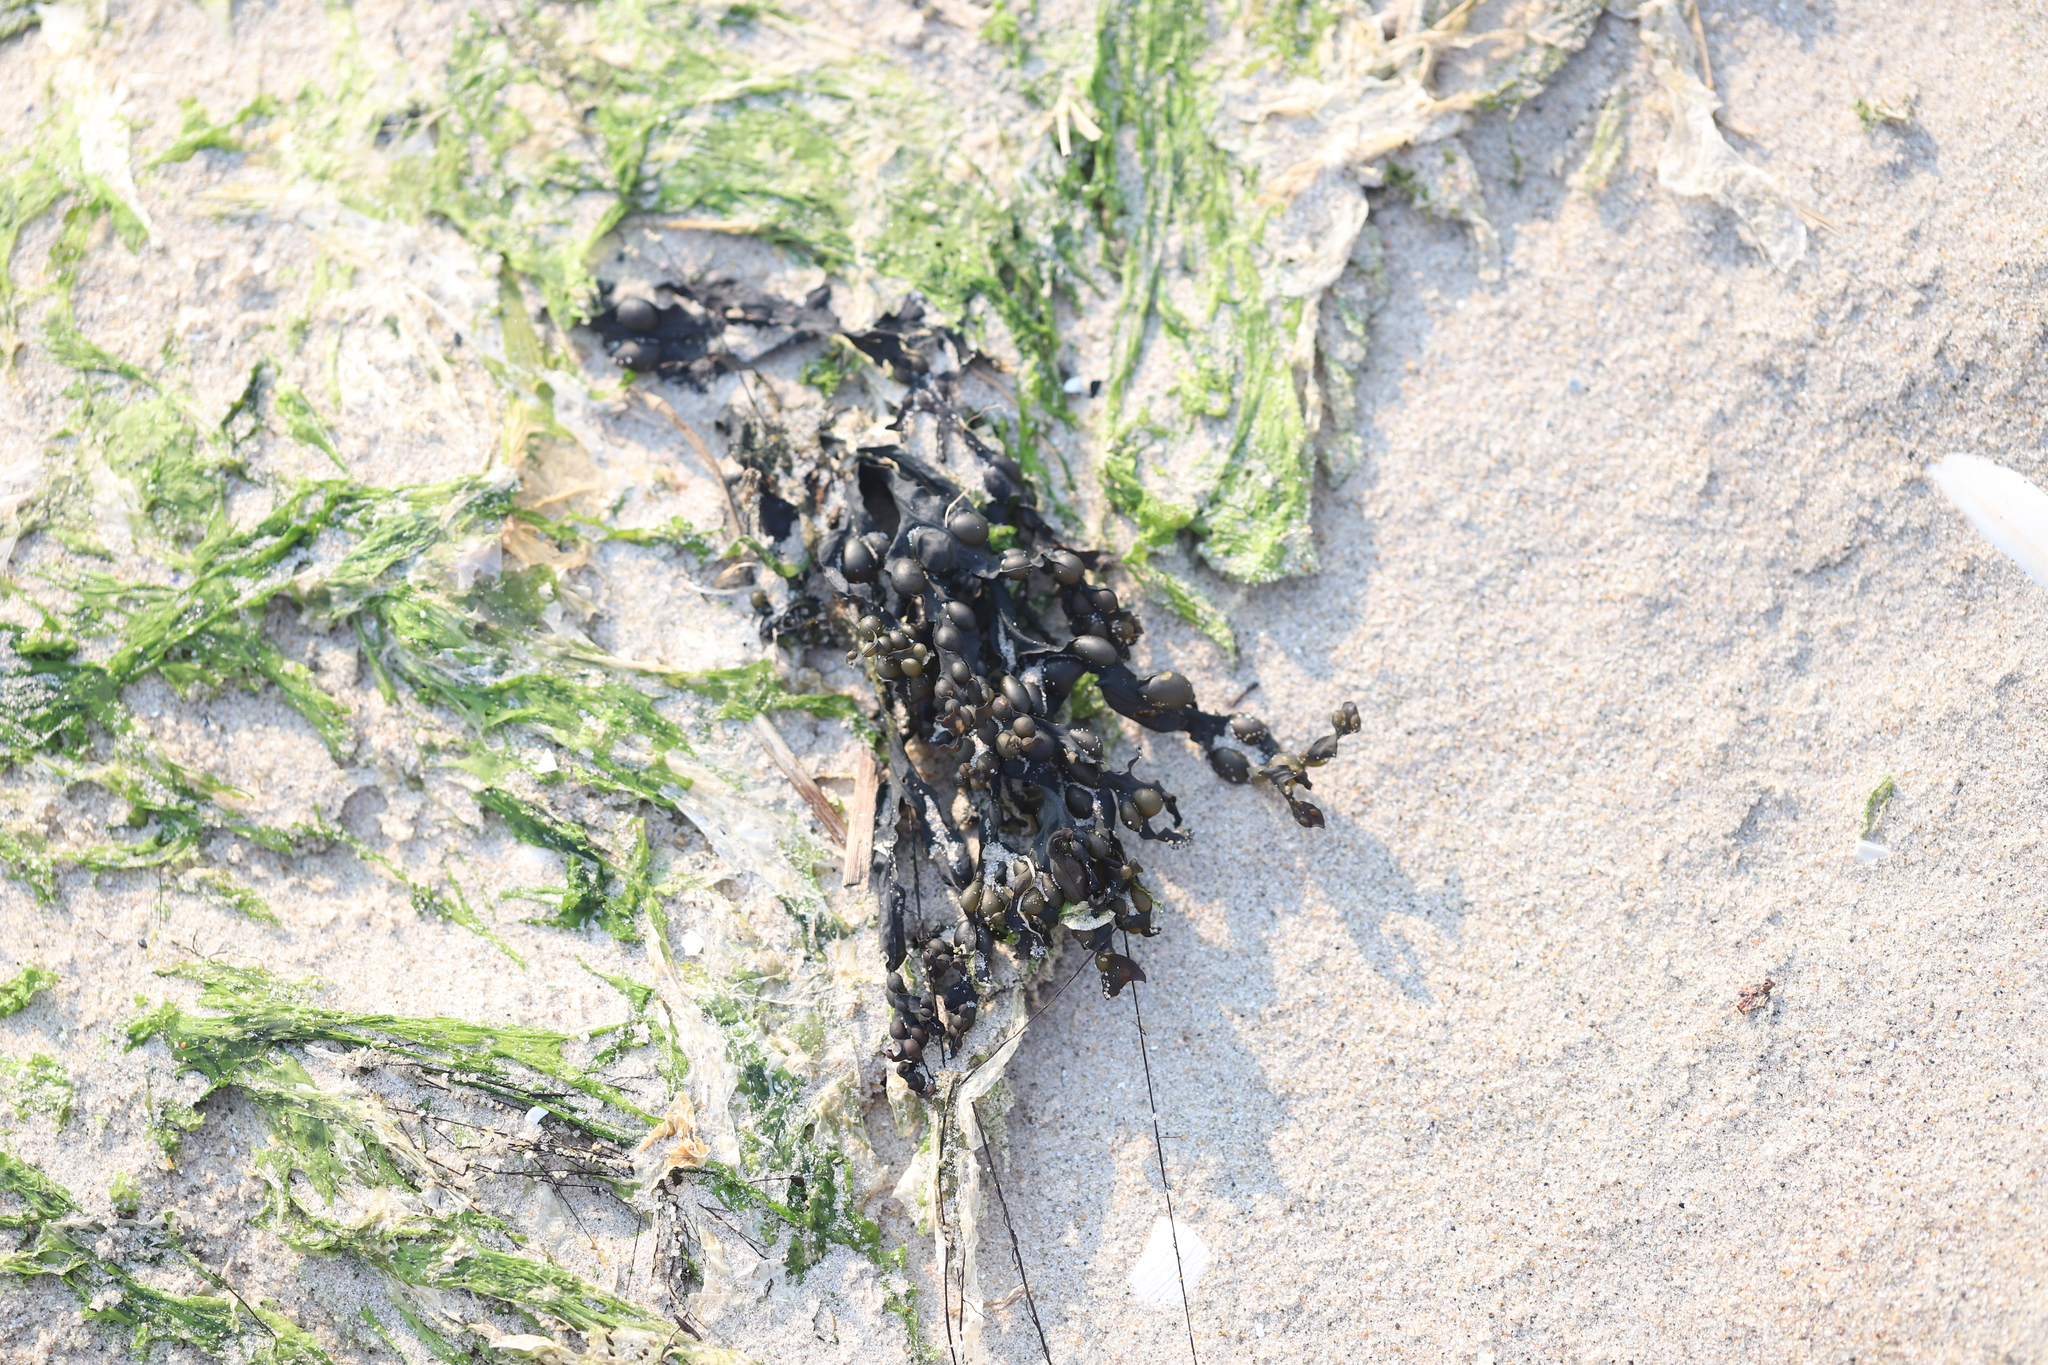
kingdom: Chromista
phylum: Ochrophyta
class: Phaeophyceae
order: Fucales
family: Fucaceae
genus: Fucus
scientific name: Fucus vesiculosus
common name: Bladder wrack
